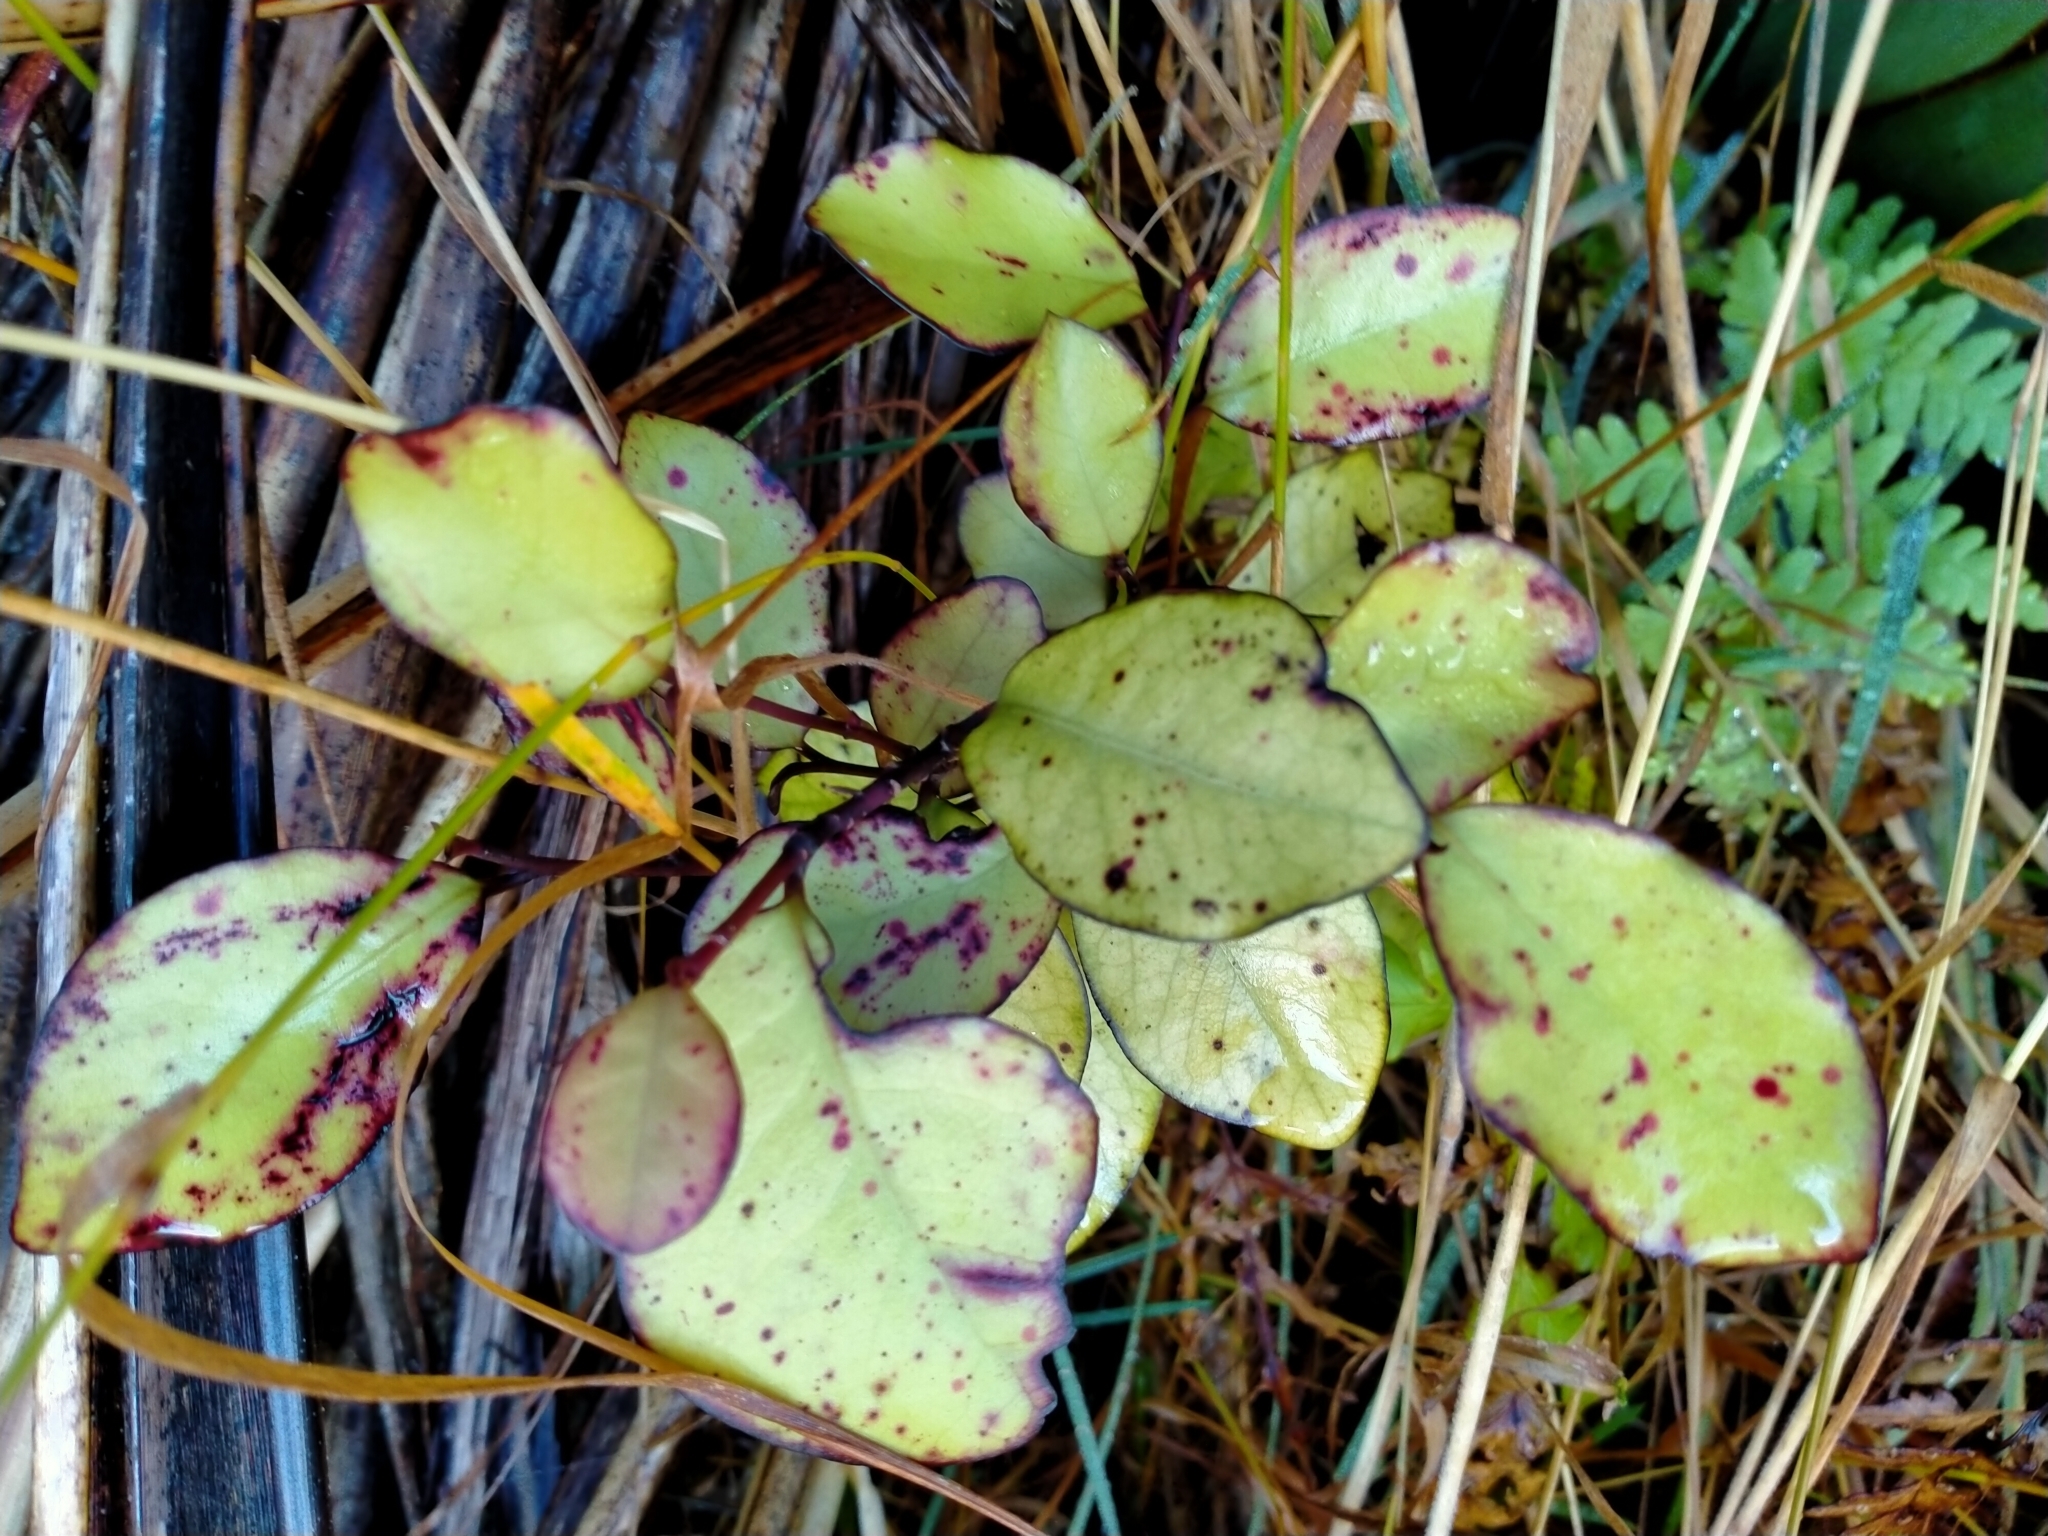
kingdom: Plantae
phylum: Tracheophyta
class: Magnoliopsida
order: Canellales
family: Winteraceae
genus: Pseudowintera
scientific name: Pseudowintera colorata
